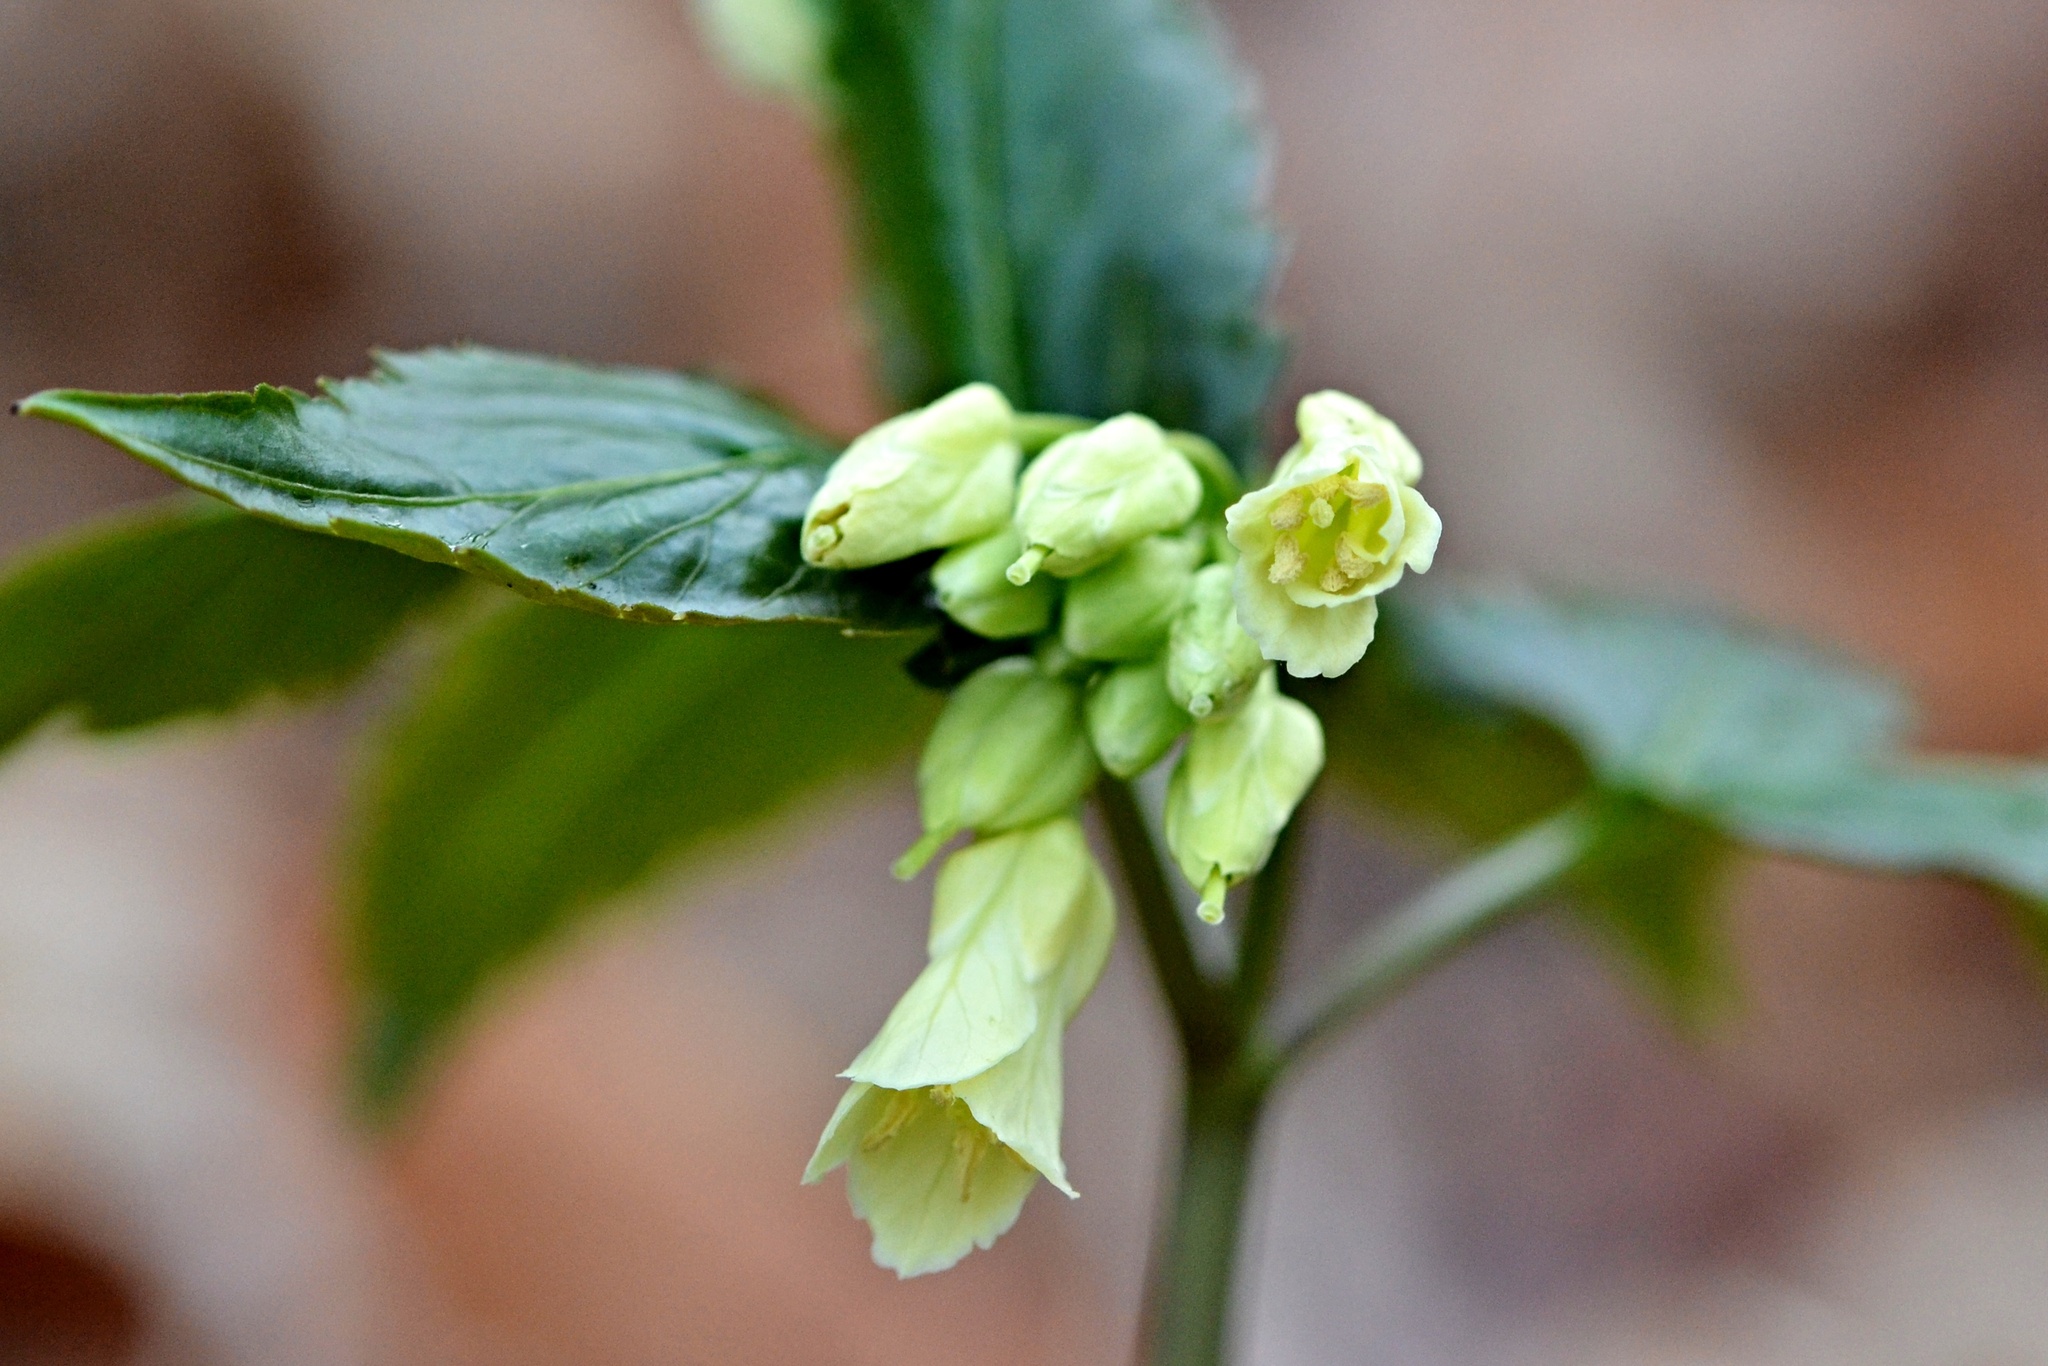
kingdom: Plantae
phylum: Tracheophyta
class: Magnoliopsida
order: Brassicales
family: Brassicaceae
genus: Cardamine
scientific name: Cardamine enneaphyllos
